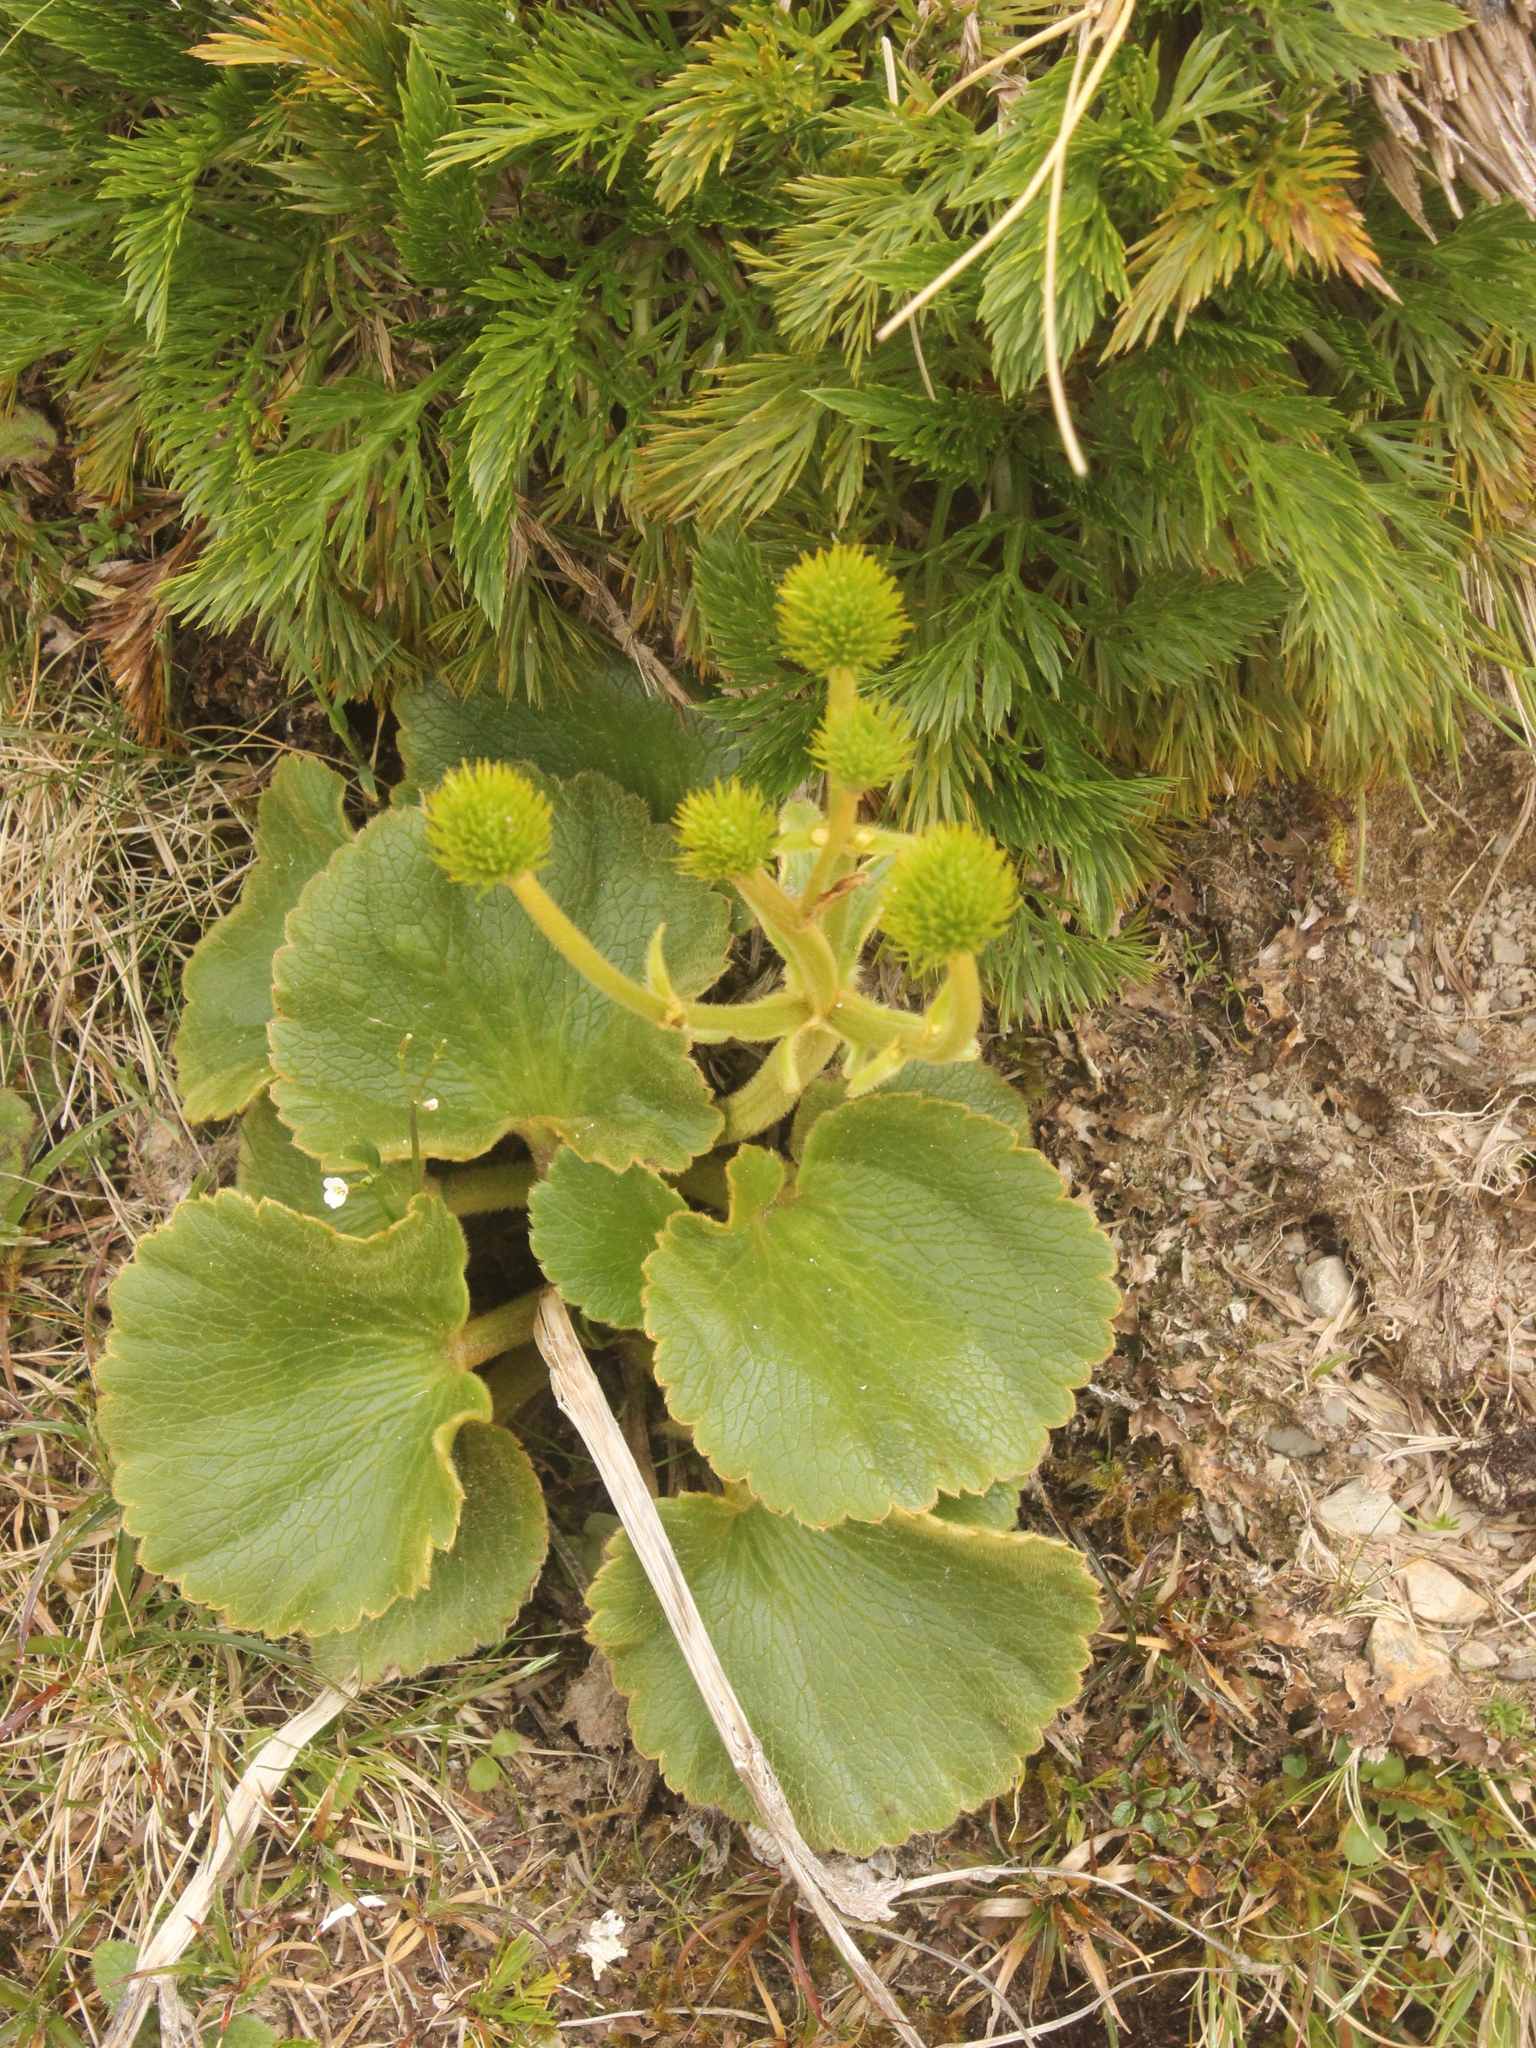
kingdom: Plantae
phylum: Tracheophyta
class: Magnoliopsida
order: Ranunculales
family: Ranunculaceae
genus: Ranunculus
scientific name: Ranunculus insignis
